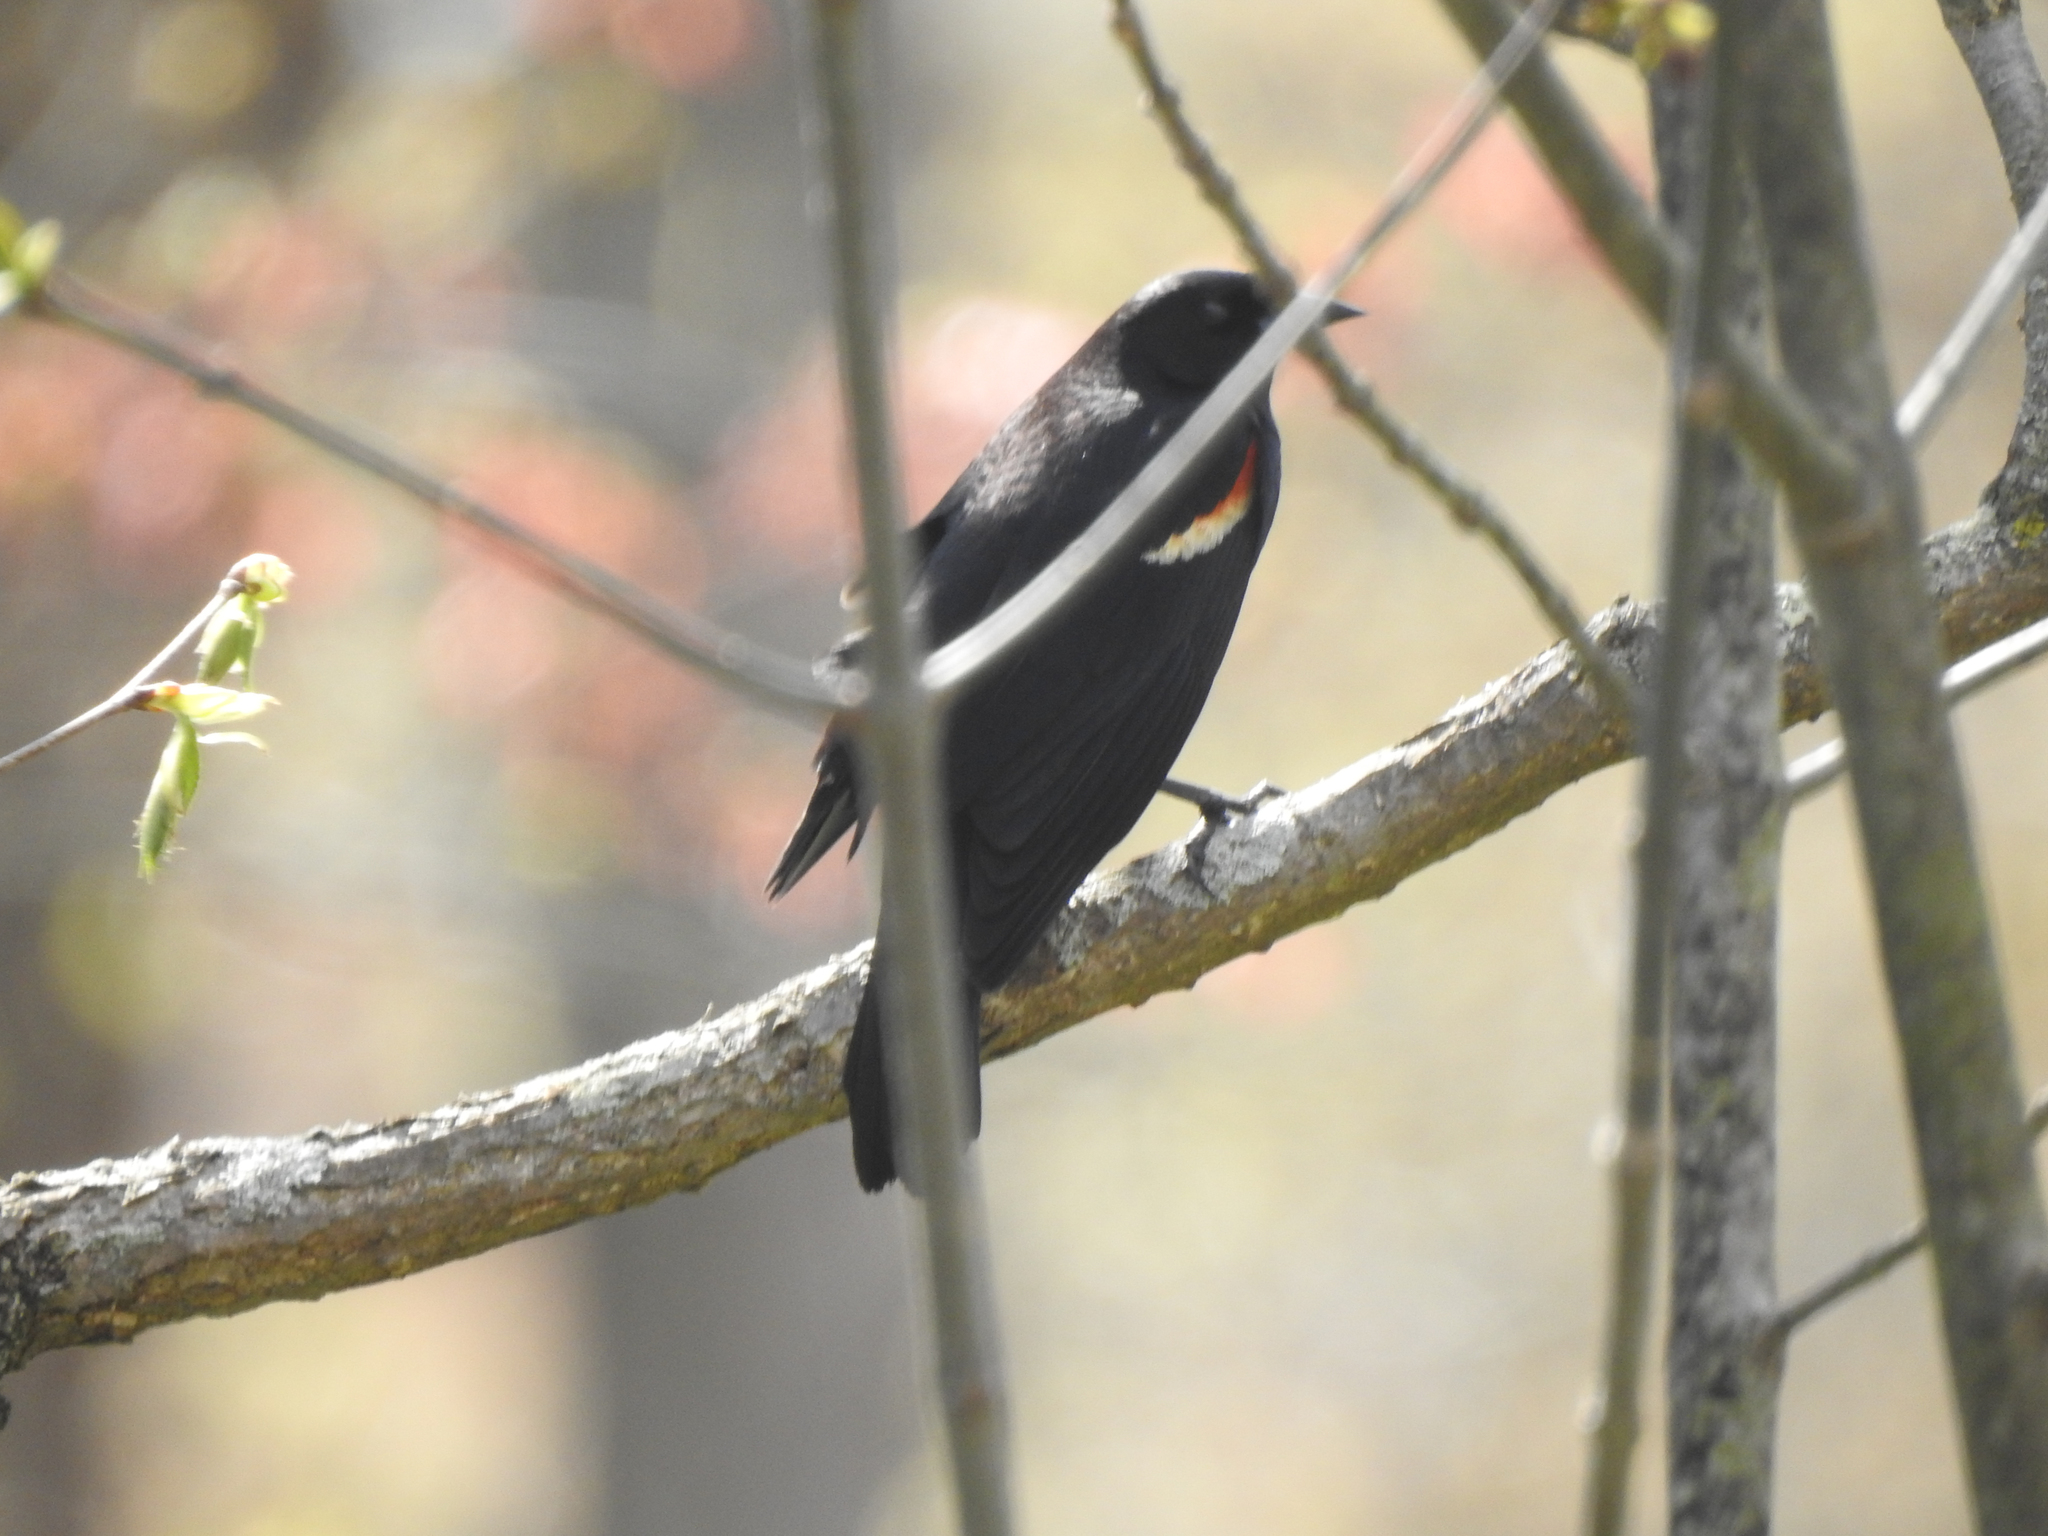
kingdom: Animalia
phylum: Chordata
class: Aves
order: Passeriformes
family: Icteridae
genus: Agelaius
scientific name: Agelaius phoeniceus
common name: Red-winged blackbird
